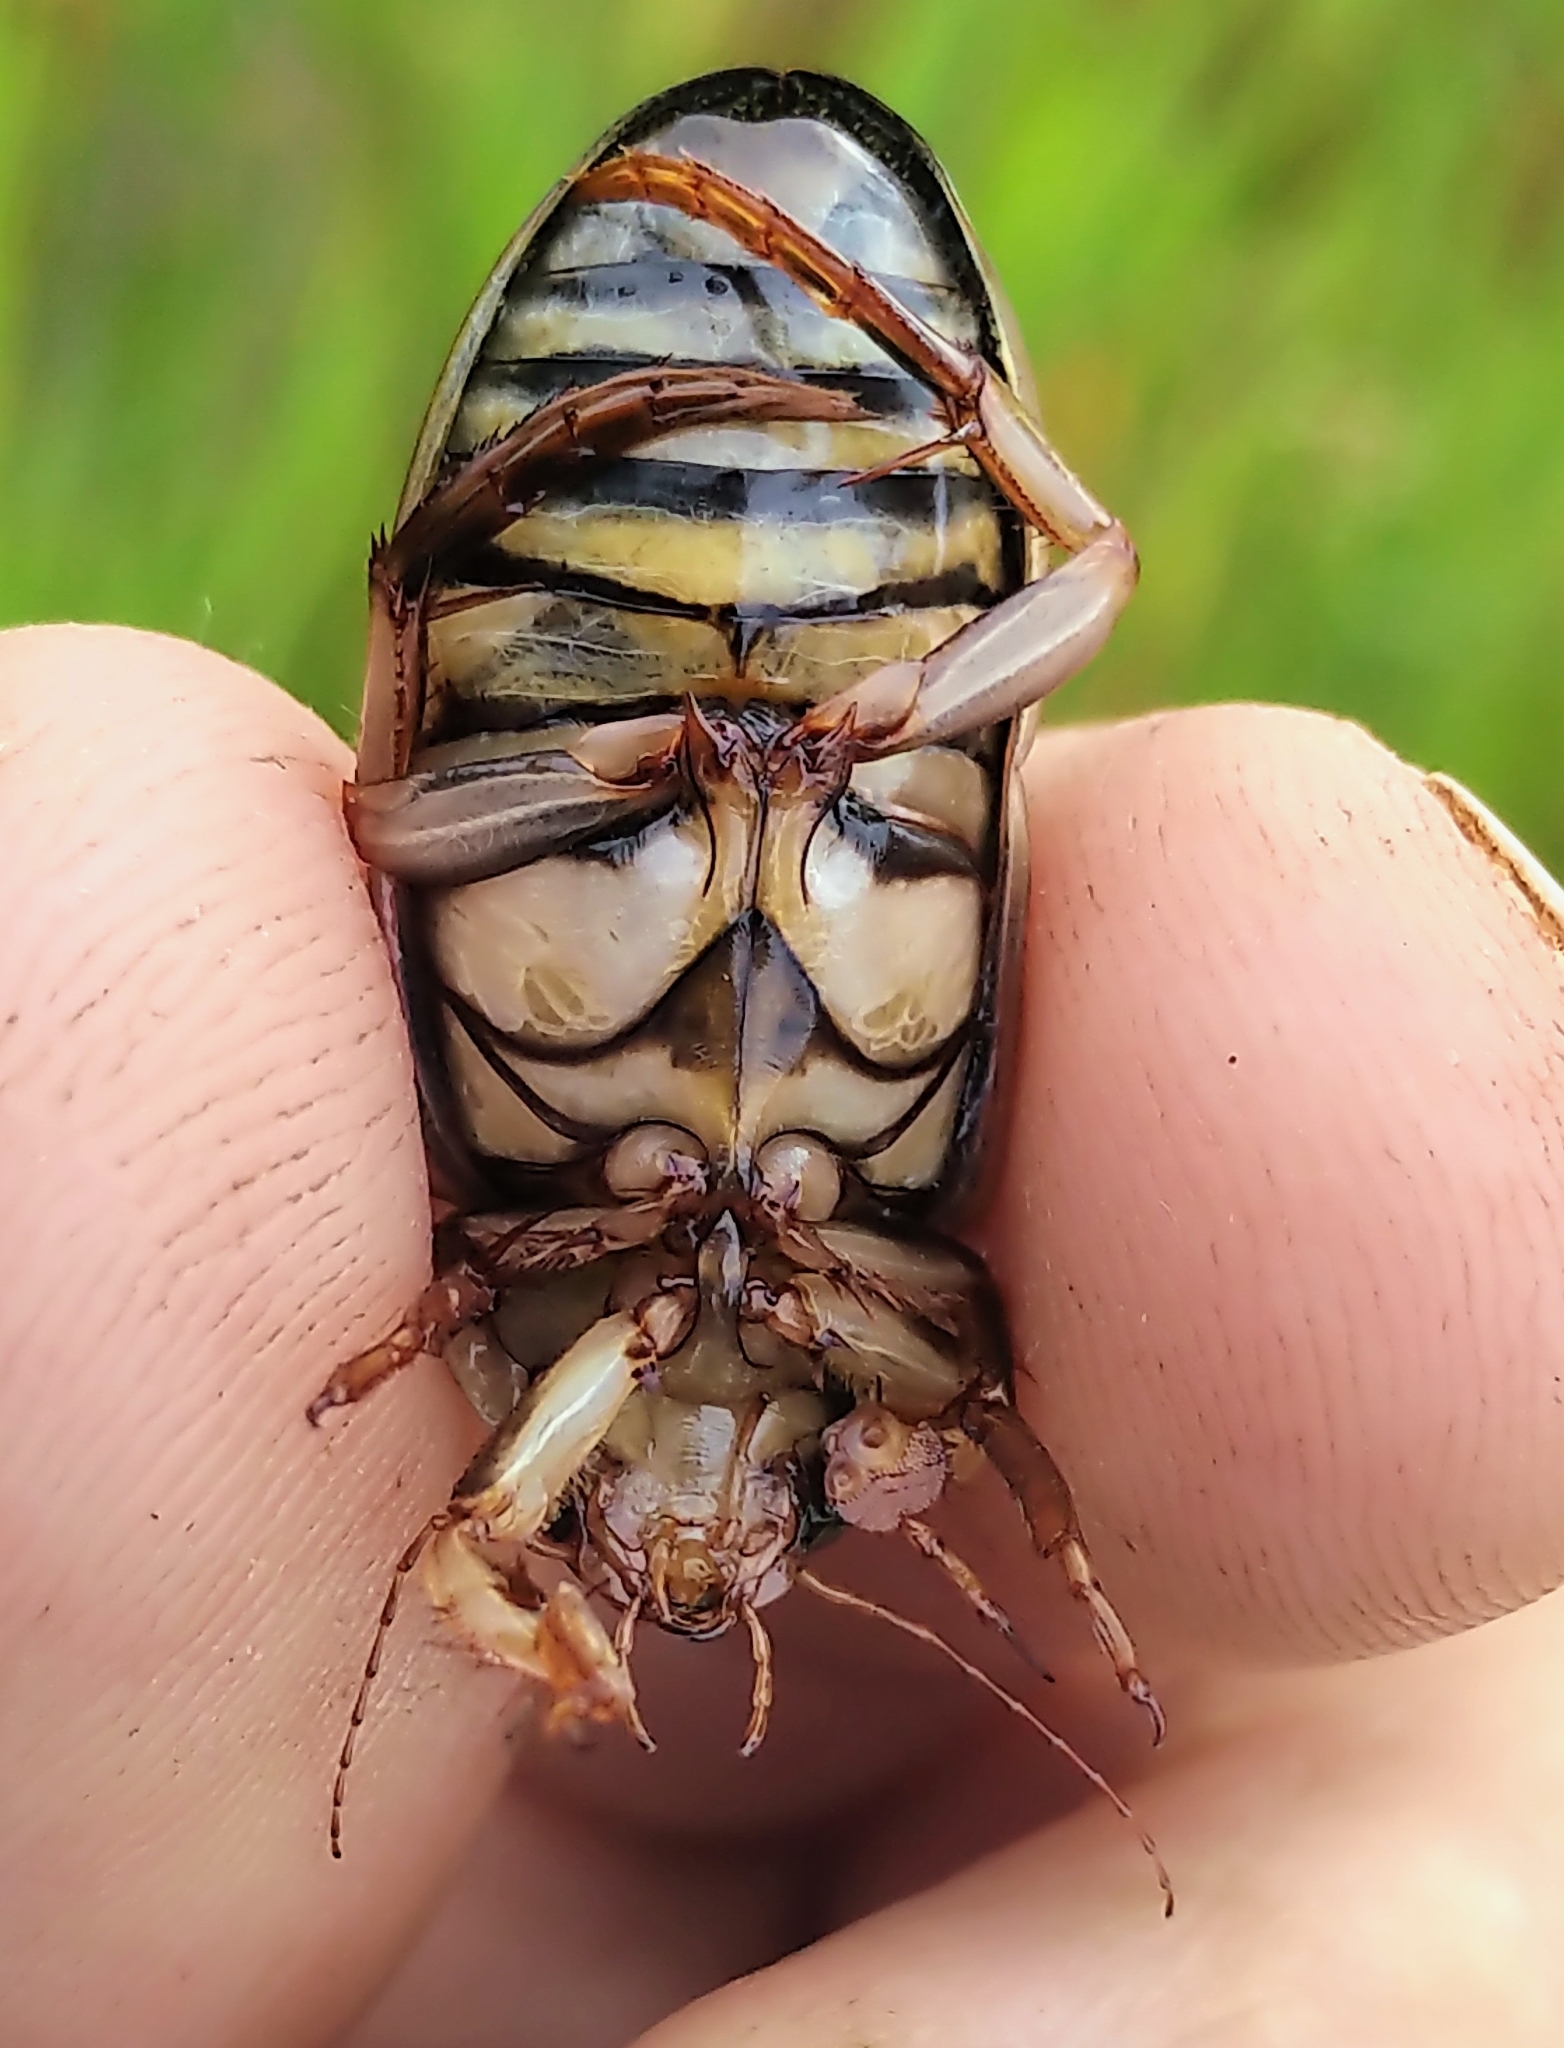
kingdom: Animalia
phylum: Arthropoda
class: Insecta
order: Coleoptera
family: Dytiscidae
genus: Dytiscus
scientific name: Dytiscus
